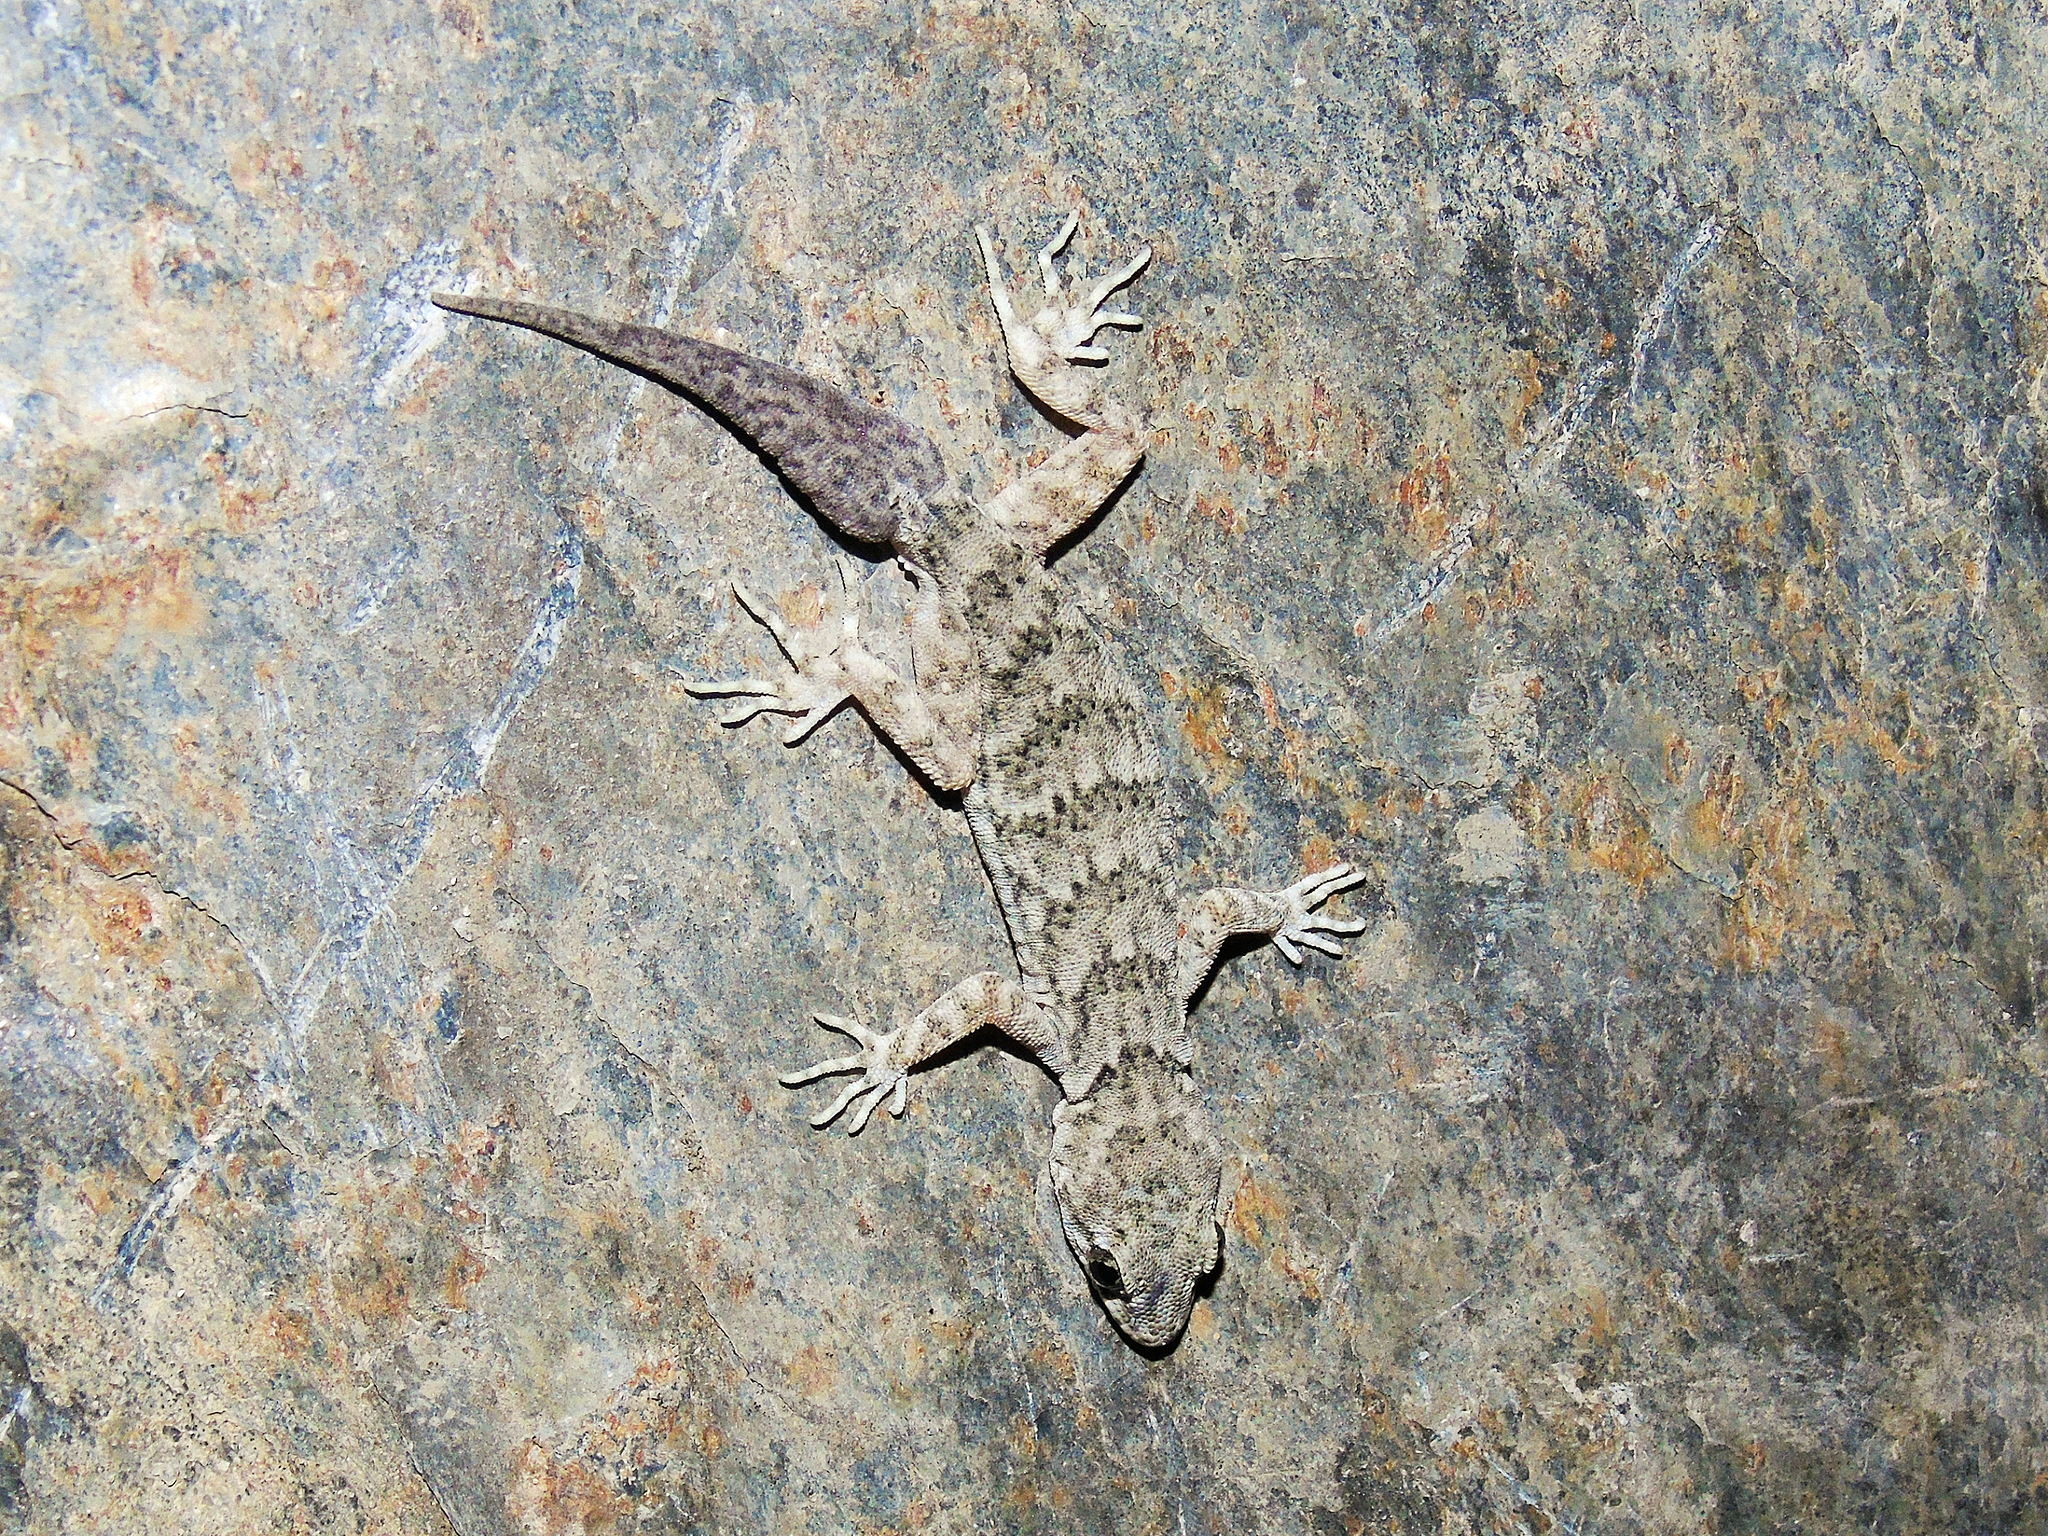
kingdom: Animalia
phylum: Chordata
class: Squamata
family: Gekkonidae
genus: Altiphylax
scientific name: Altiphylax stoliczkai
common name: Frontier bow-fingered gecko
